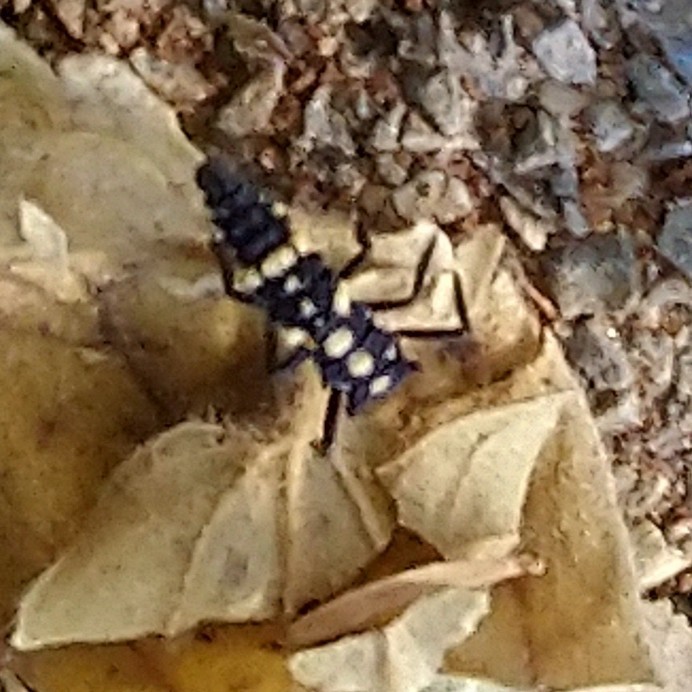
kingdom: Animalia
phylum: Arthropoda
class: Insecta
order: Coleoptera
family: Coccinellidae
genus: Cheilomenes
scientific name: Cheilomenes lunata
